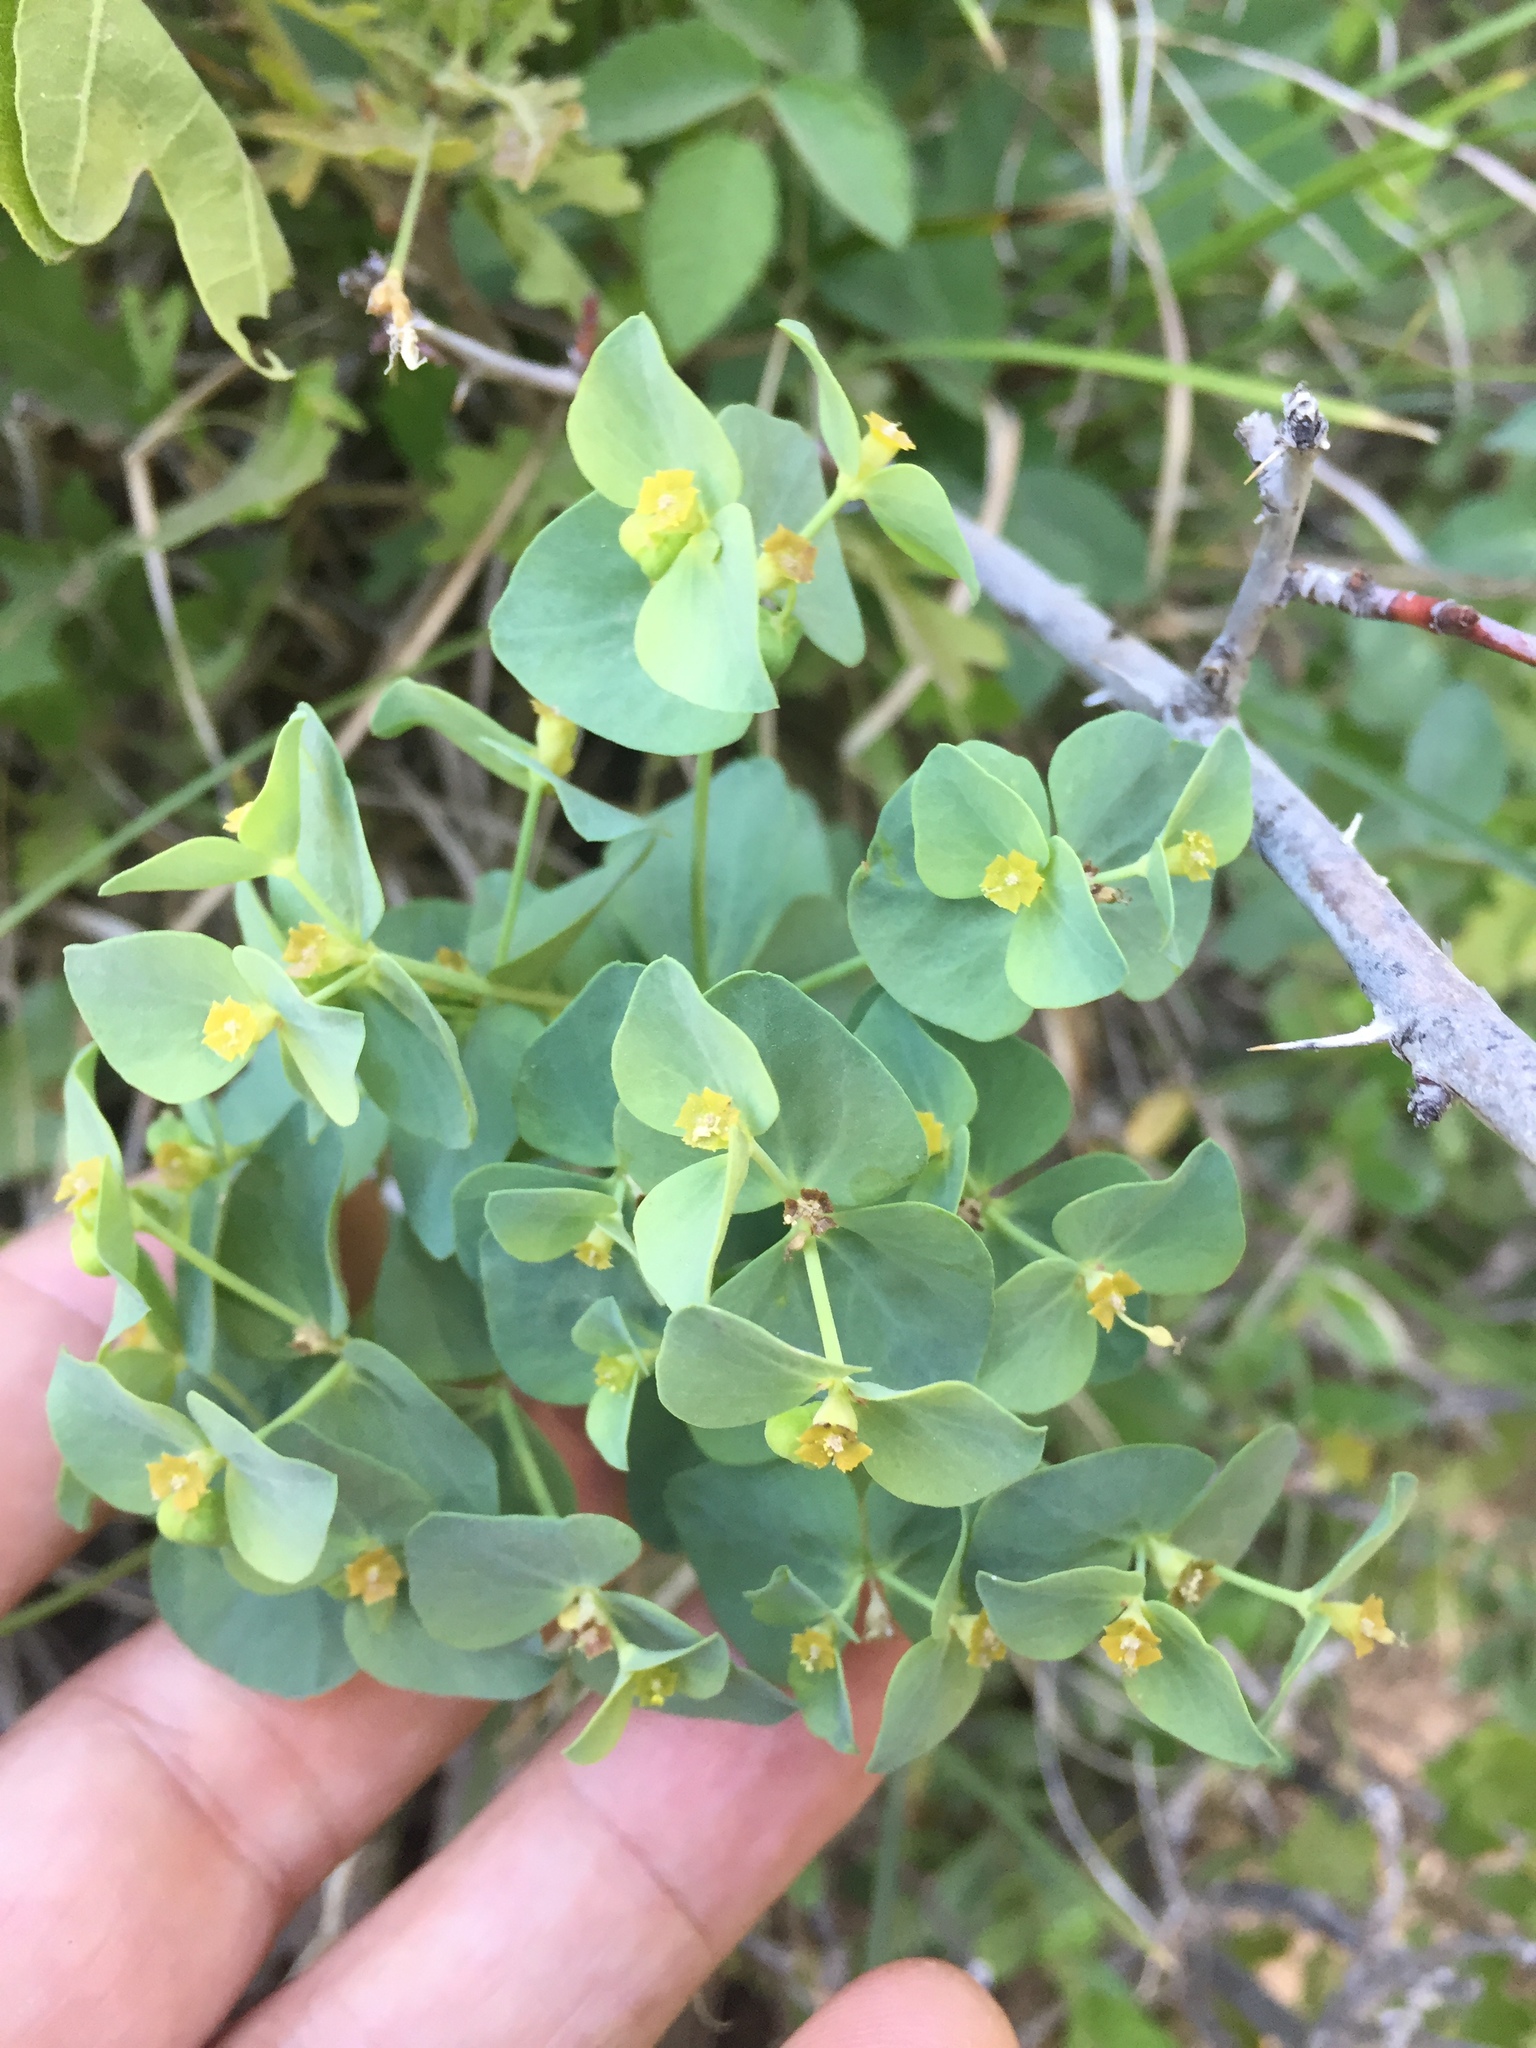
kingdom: Plantae
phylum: Tracheophyta
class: Magnoliopsida
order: Malpighiales
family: Euphorbiaceae
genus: Euphorbia
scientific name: Euphorbia brachycera
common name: Shorthorn spurge
